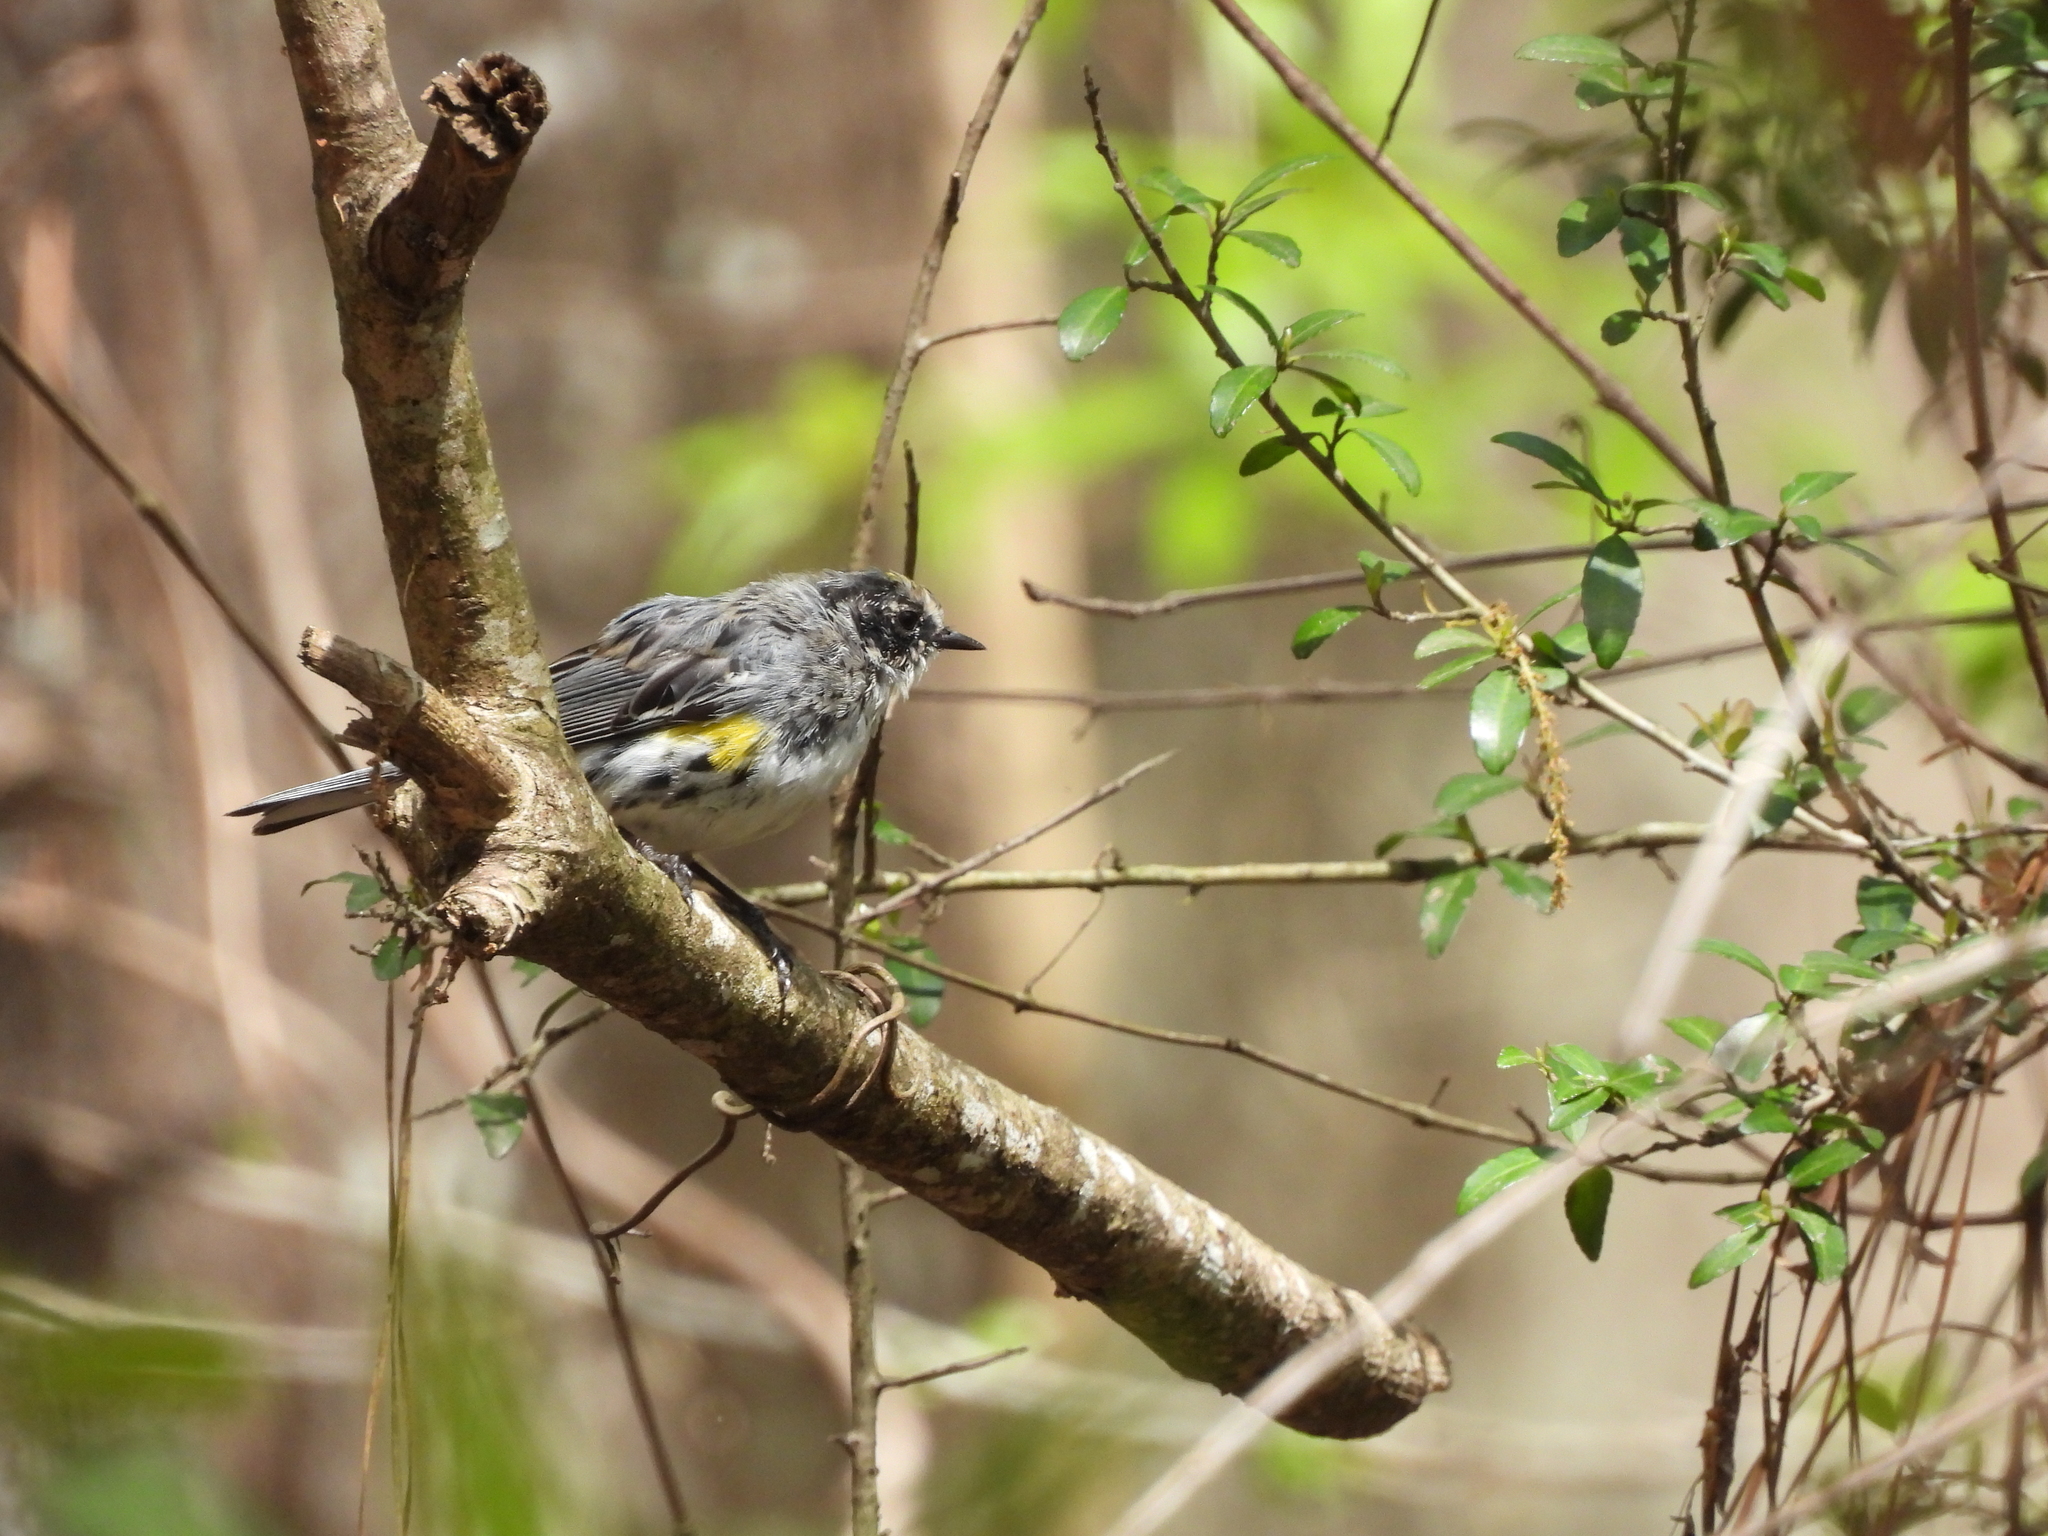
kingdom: Animalia
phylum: Chordata
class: Aves
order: Passeriformes
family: Parulidae
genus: Setophaga
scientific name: Setophaga coronata
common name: Myrtle warbler
